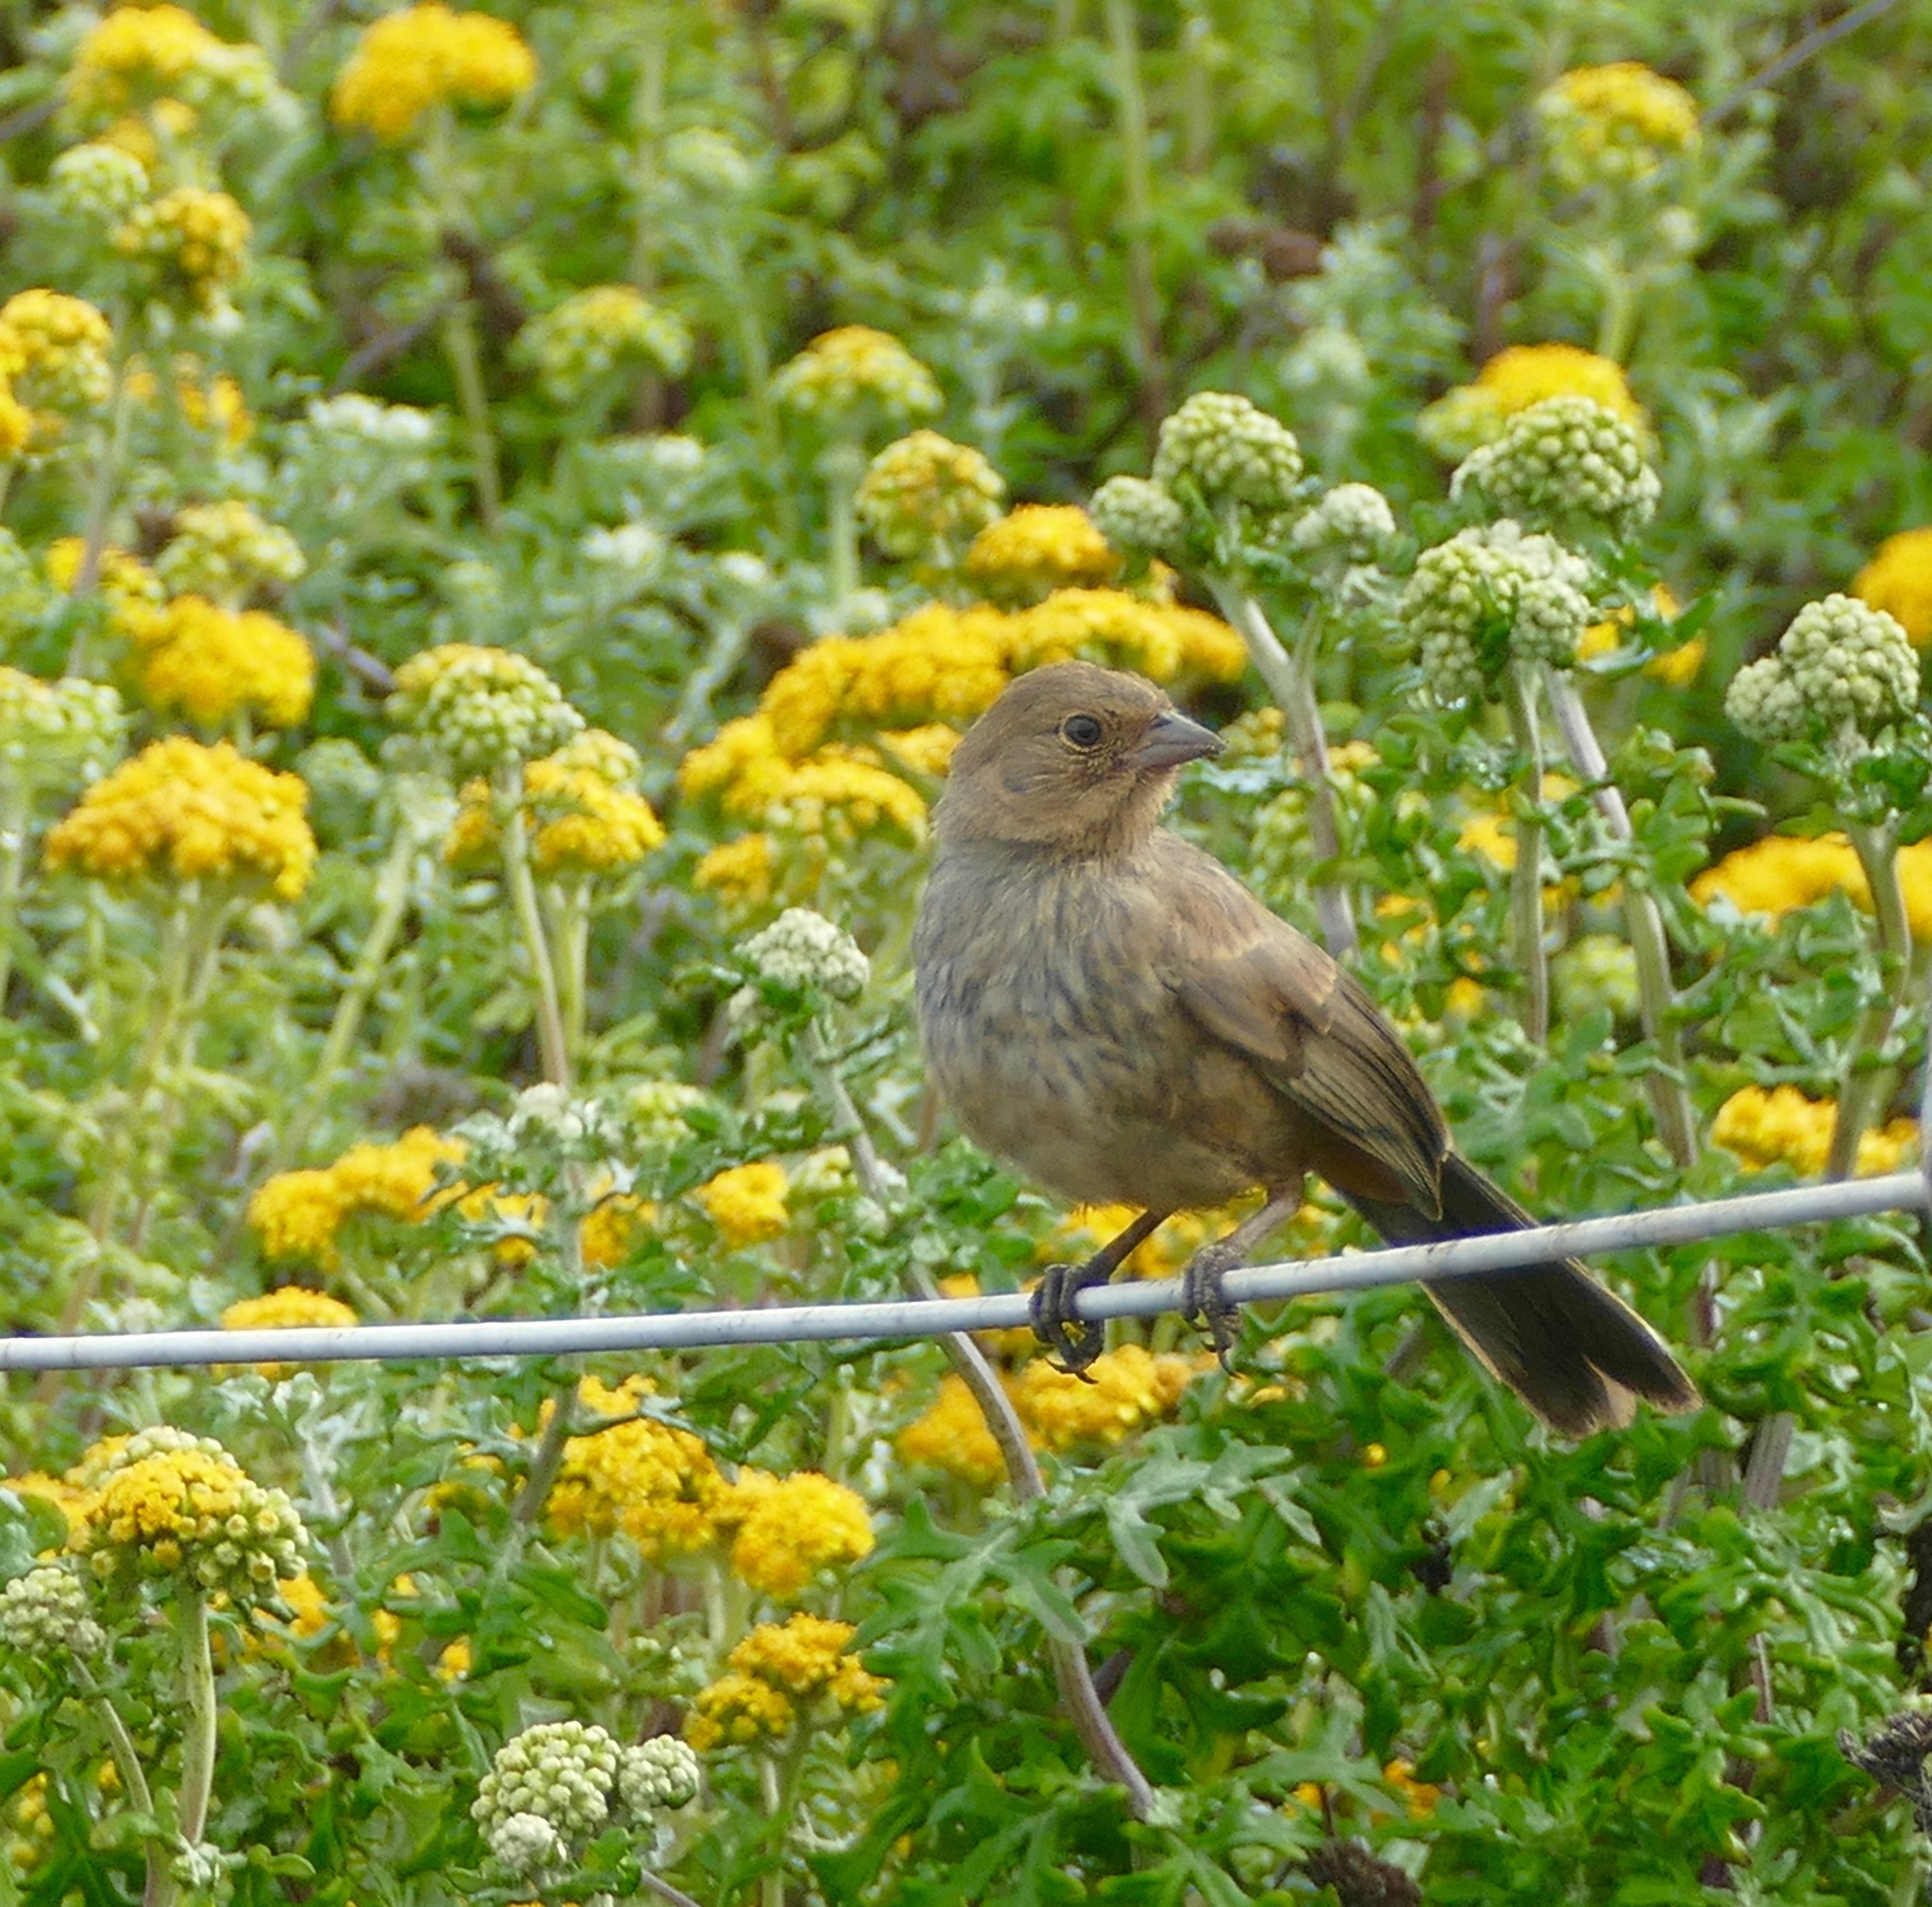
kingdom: Animalia
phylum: Chordata
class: Aves
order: Passeriformes
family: Passerellidae
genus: Melozone
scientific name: Melozone crissalis
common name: California towhee
